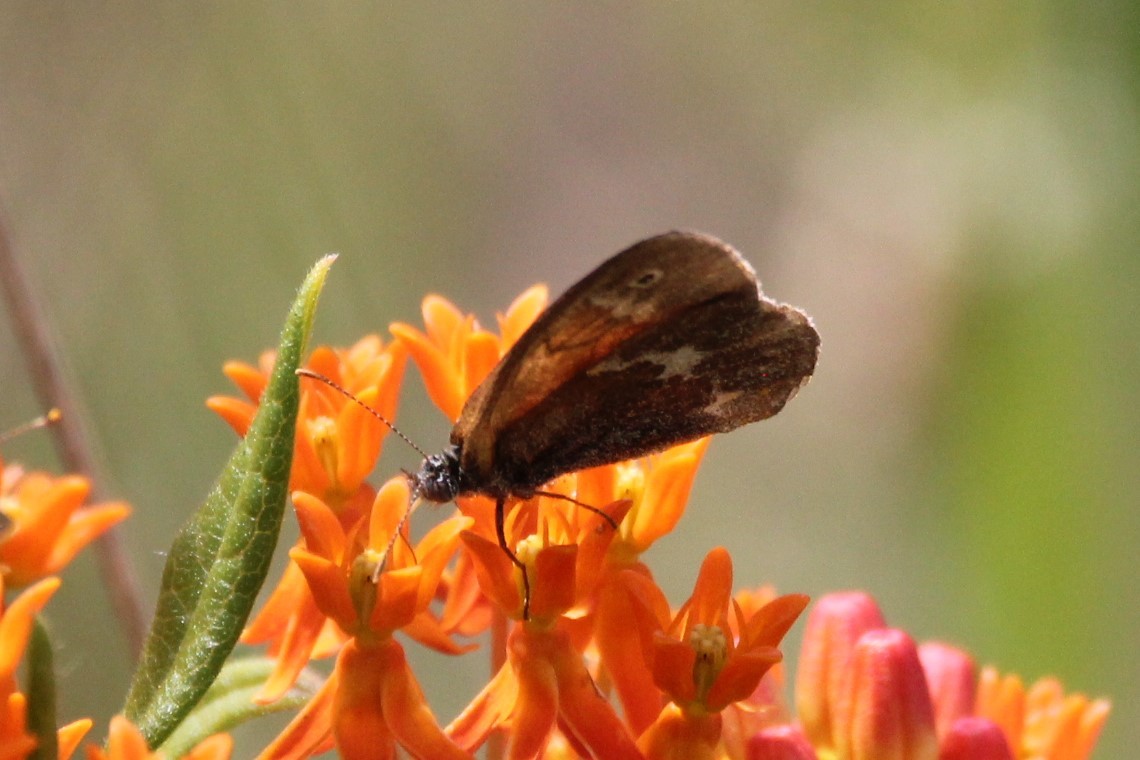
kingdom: Animalia
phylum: Arthropoda
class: Insecta
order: Lepidoptera
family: Nymphalidae
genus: Coenonympha
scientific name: Coenonympha california
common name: Common ringlet
